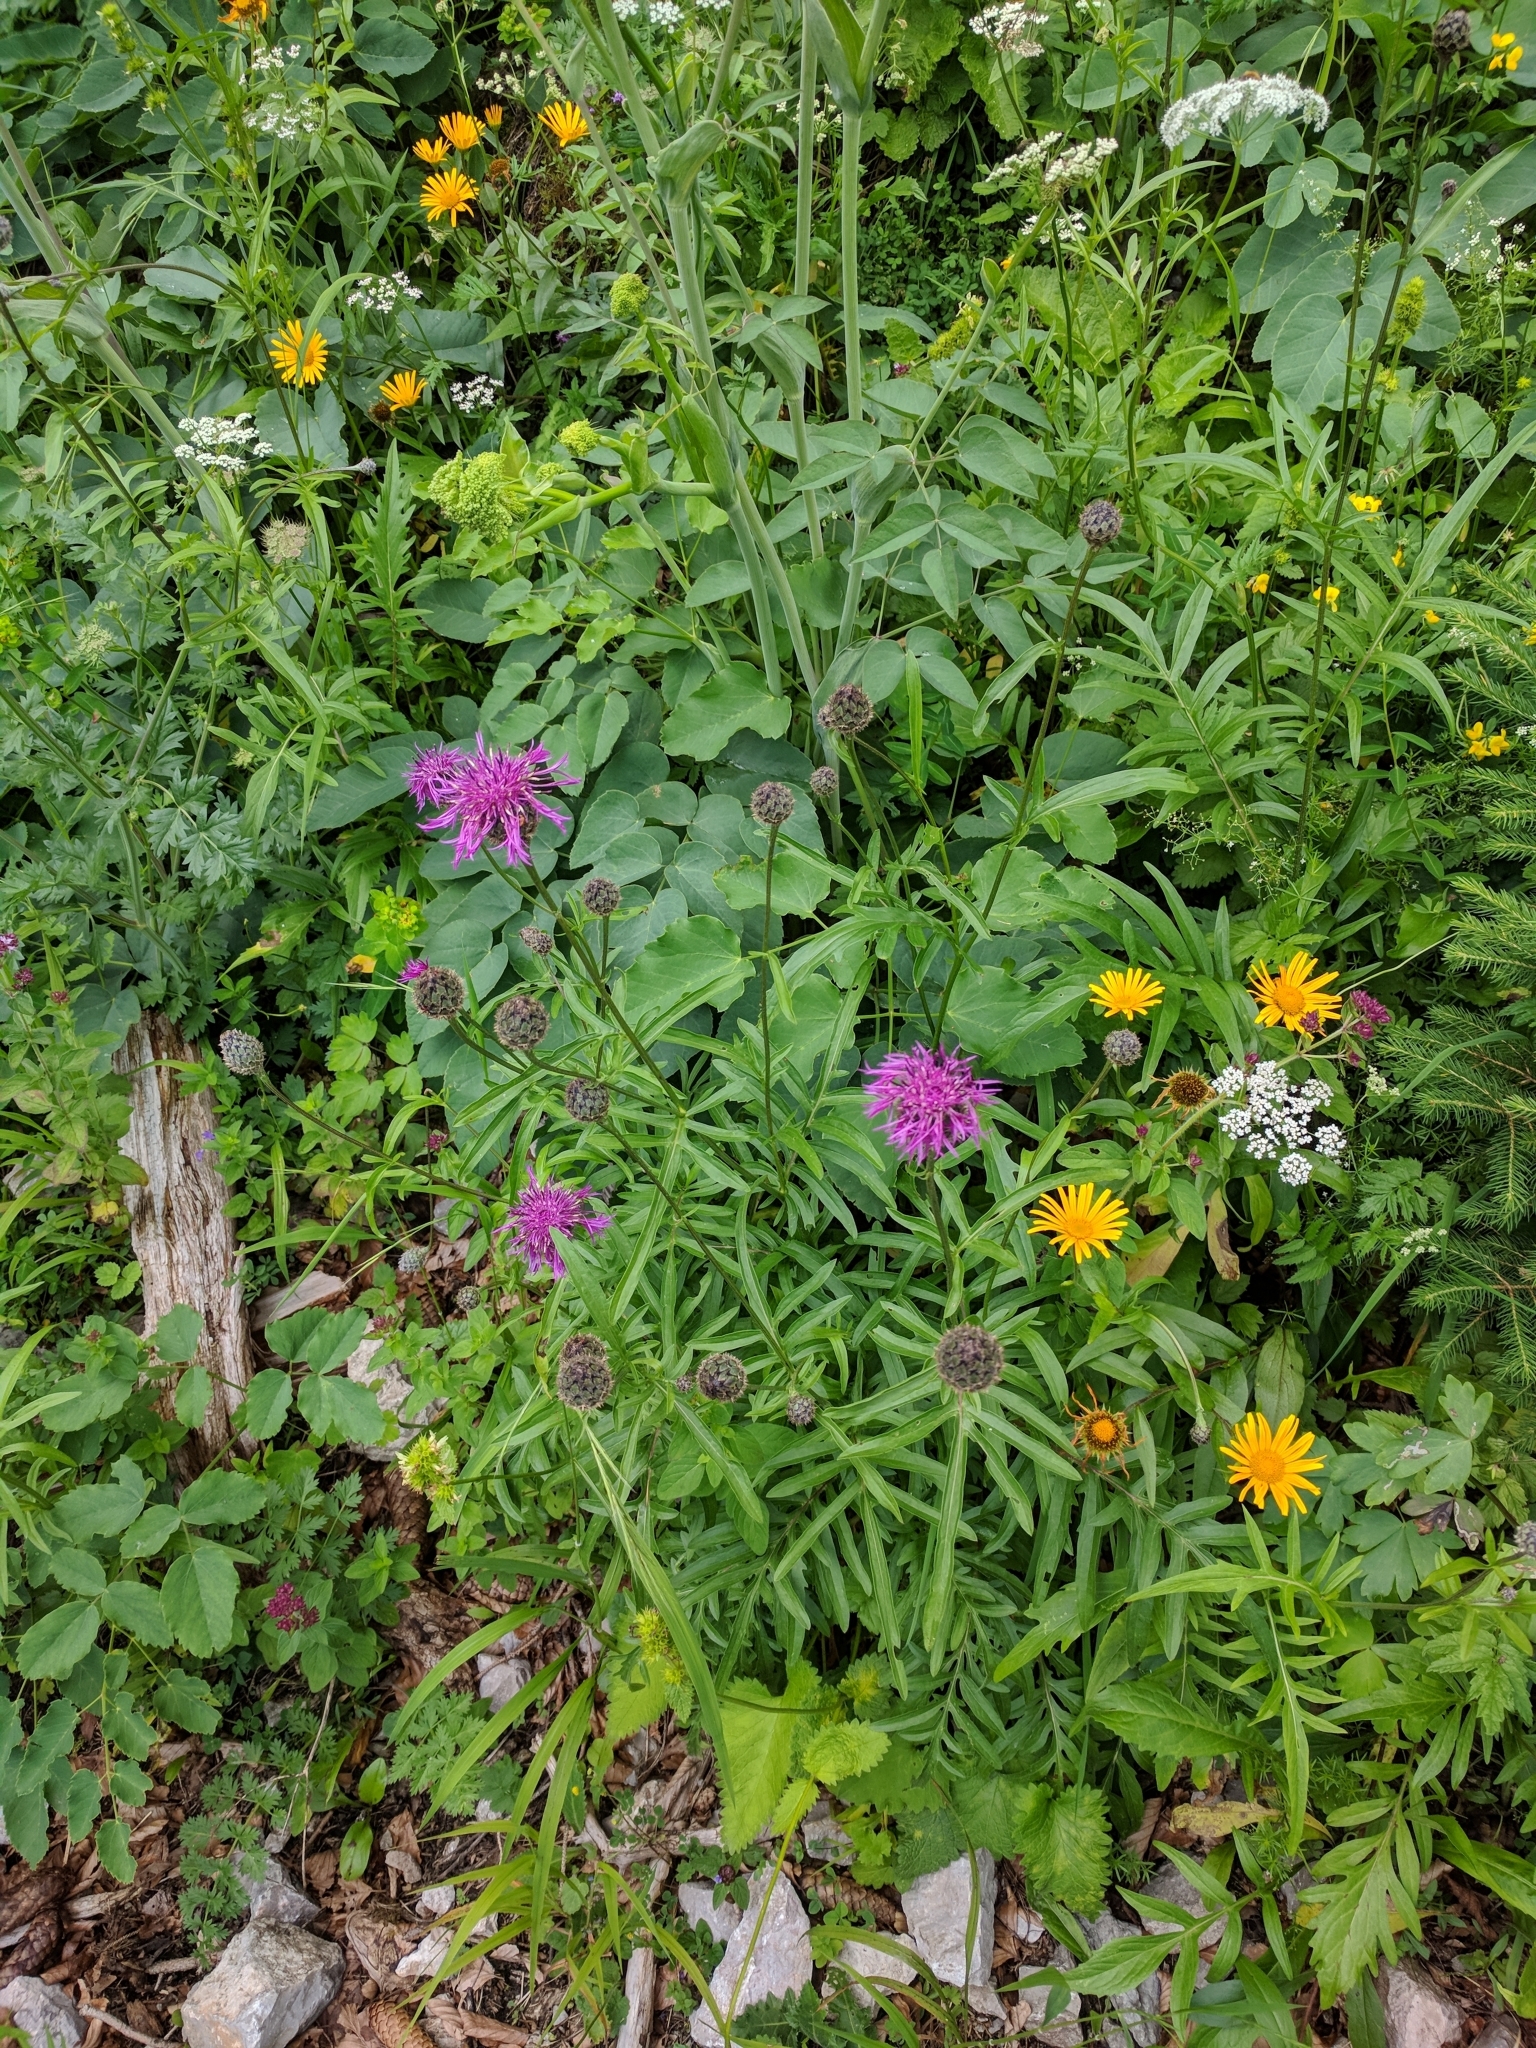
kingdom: Plantae
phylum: Tracheophyta
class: Magnoliopsida
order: Asterales
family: Asteraceae
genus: Centaurea
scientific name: Centaurea scabiosa
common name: Greater knapweed
